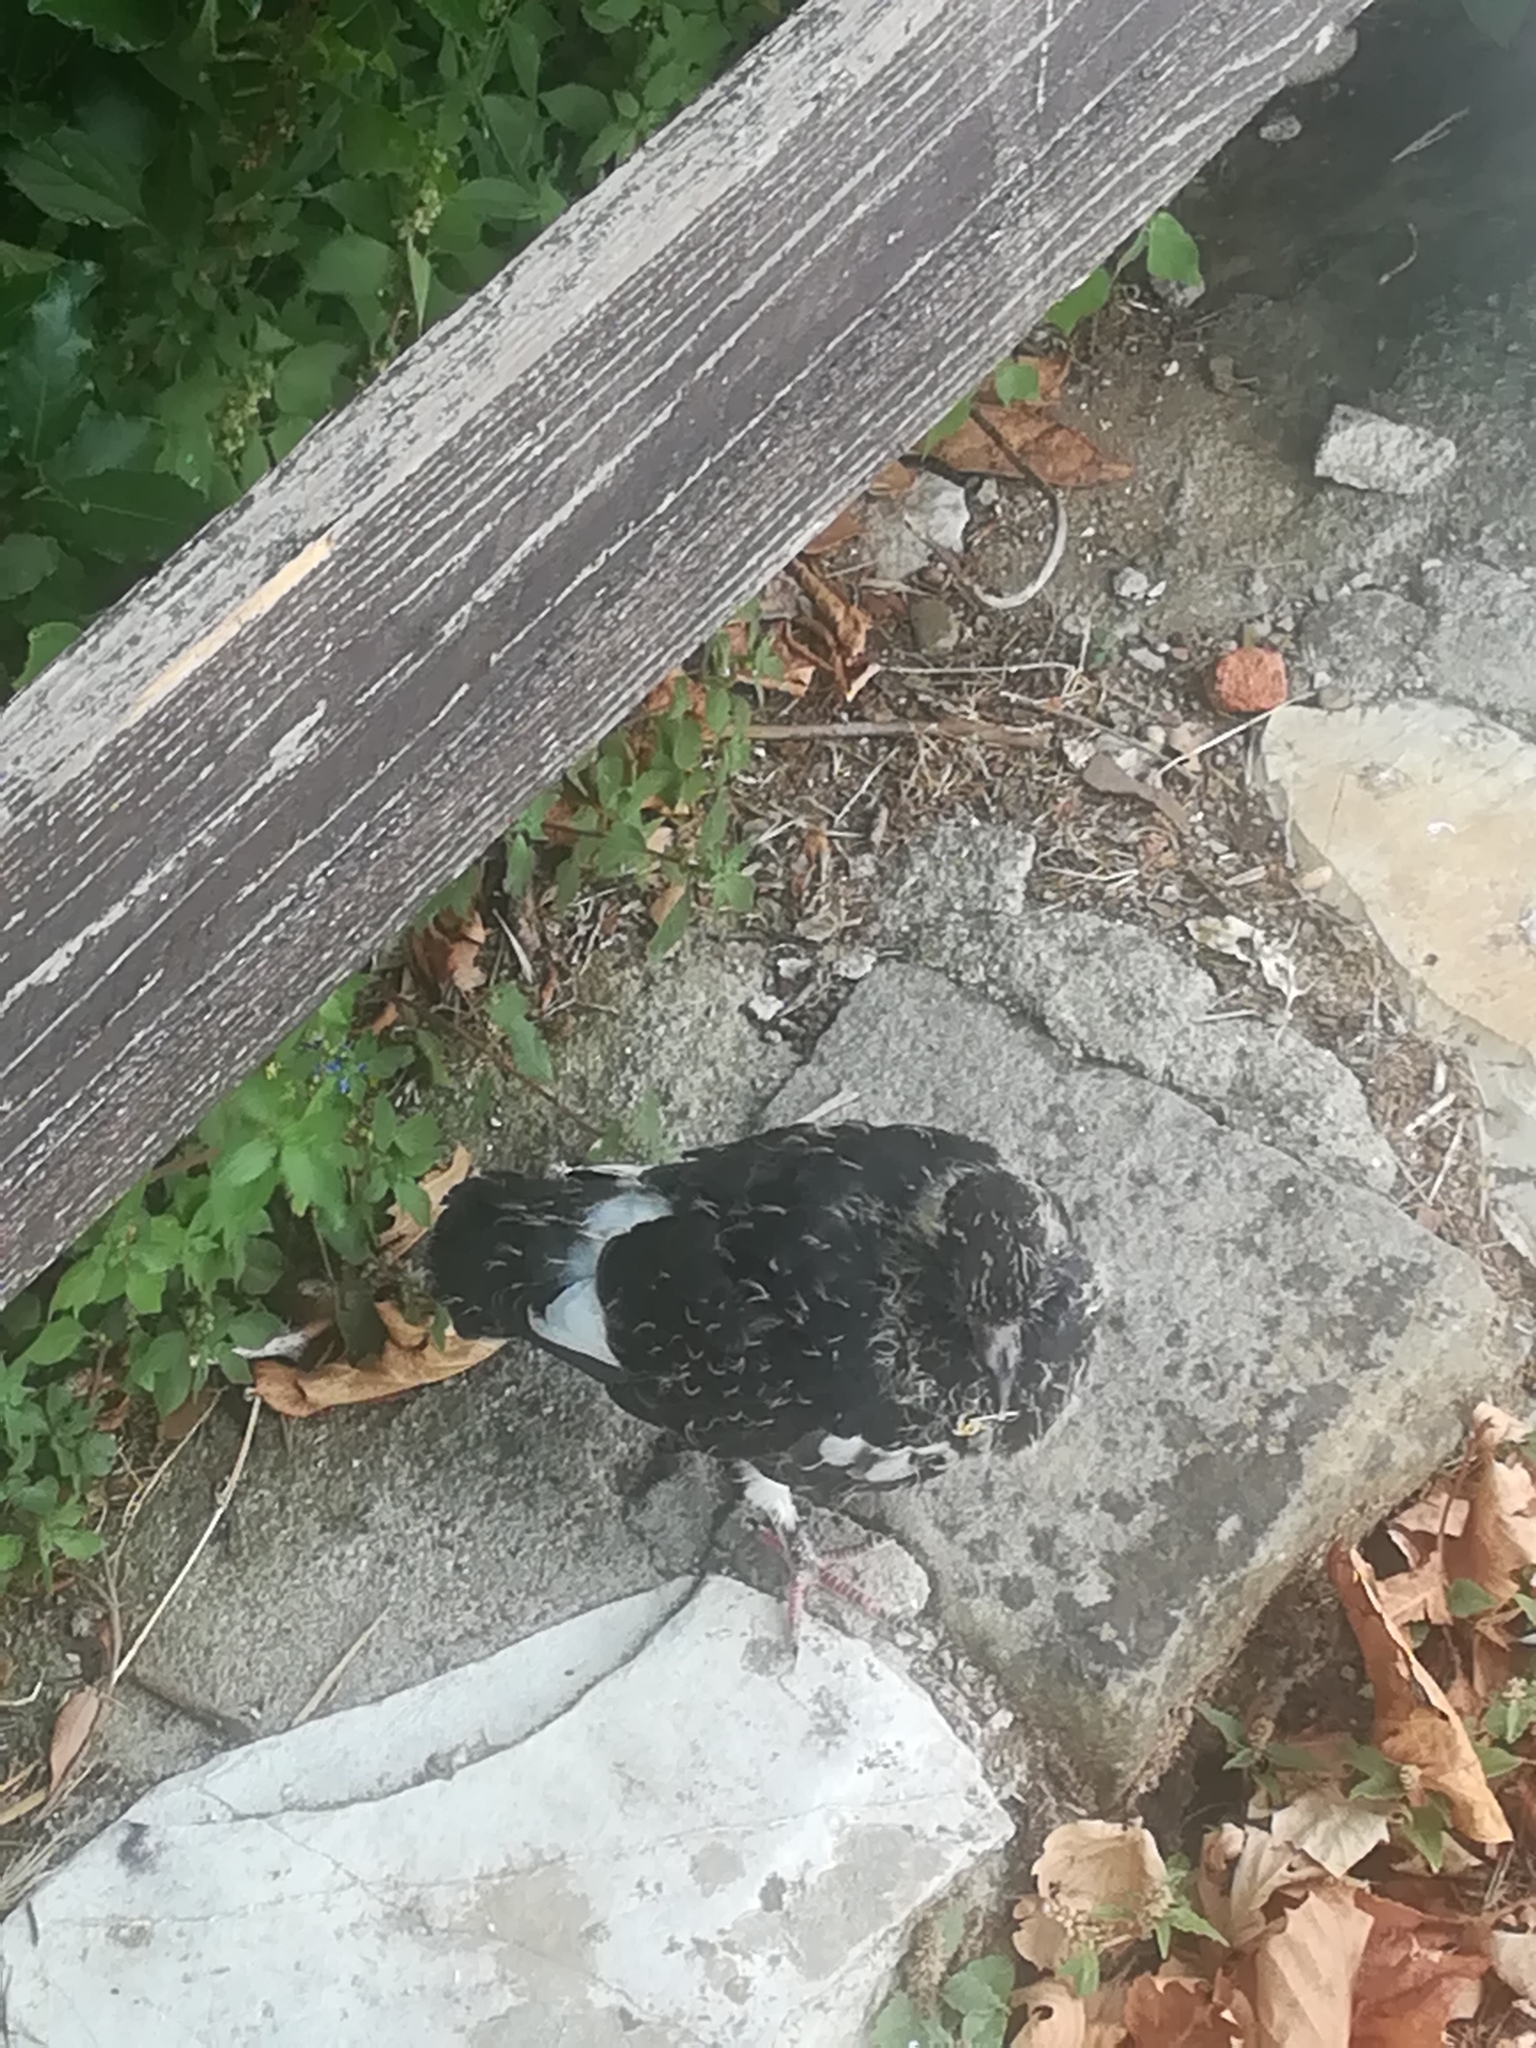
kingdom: Animalia
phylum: Chordata
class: Aves
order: Columbiformes
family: Columbidae
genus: Columba
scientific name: Columba livia
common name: Rock pigeon
